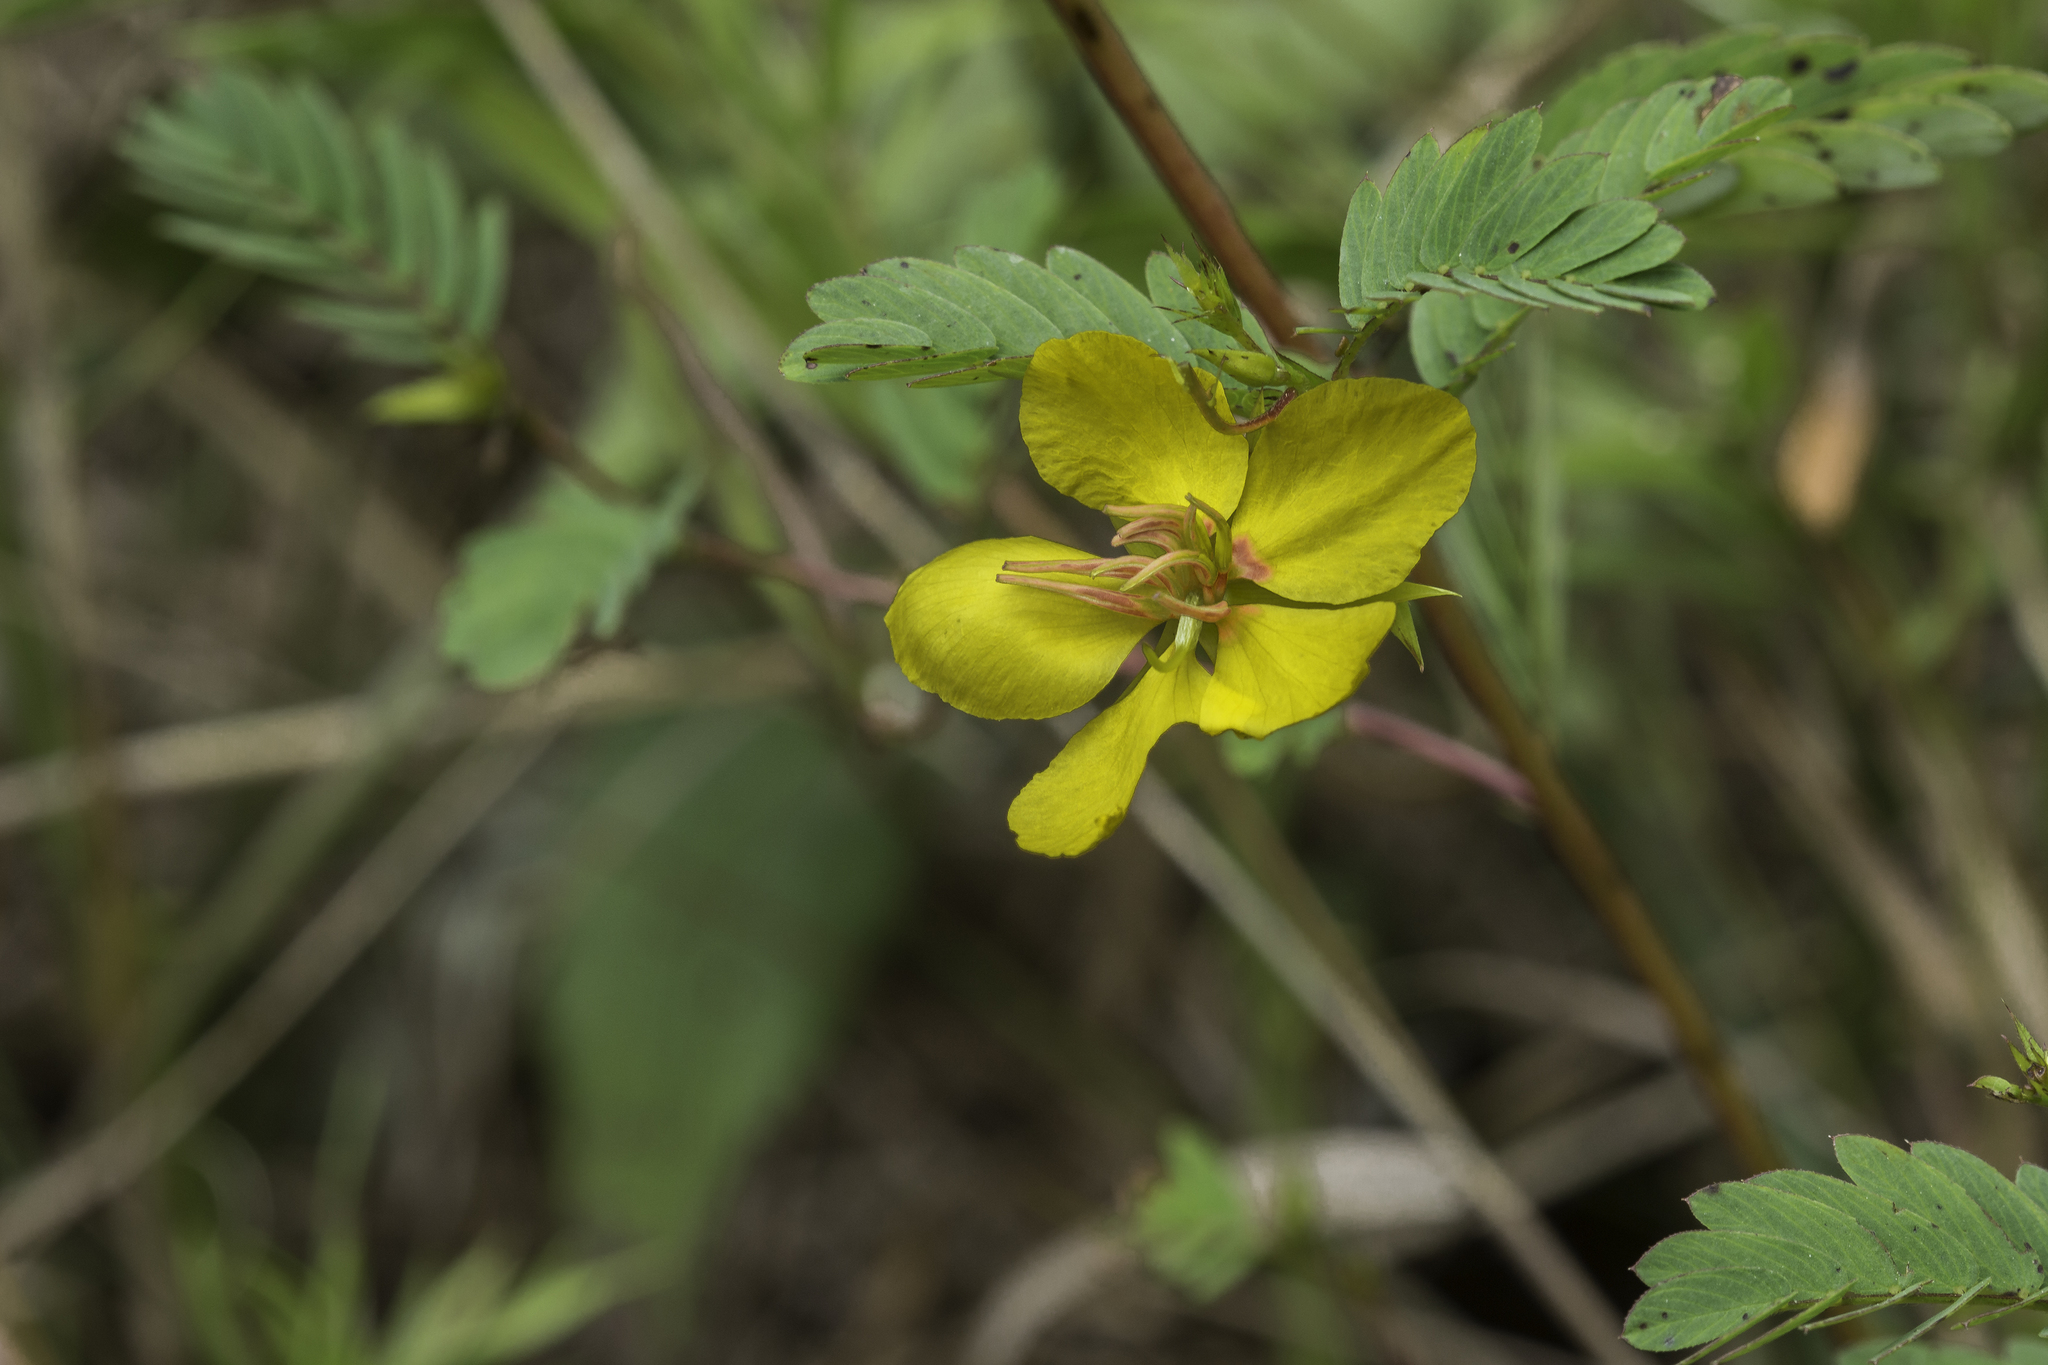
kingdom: Plantae
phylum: Tracheophyta
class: Magnoliopsida
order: Fabales
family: Fabaceae
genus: Chamaecrista
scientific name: Chamaecrista fasciculata
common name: Golden cassia
